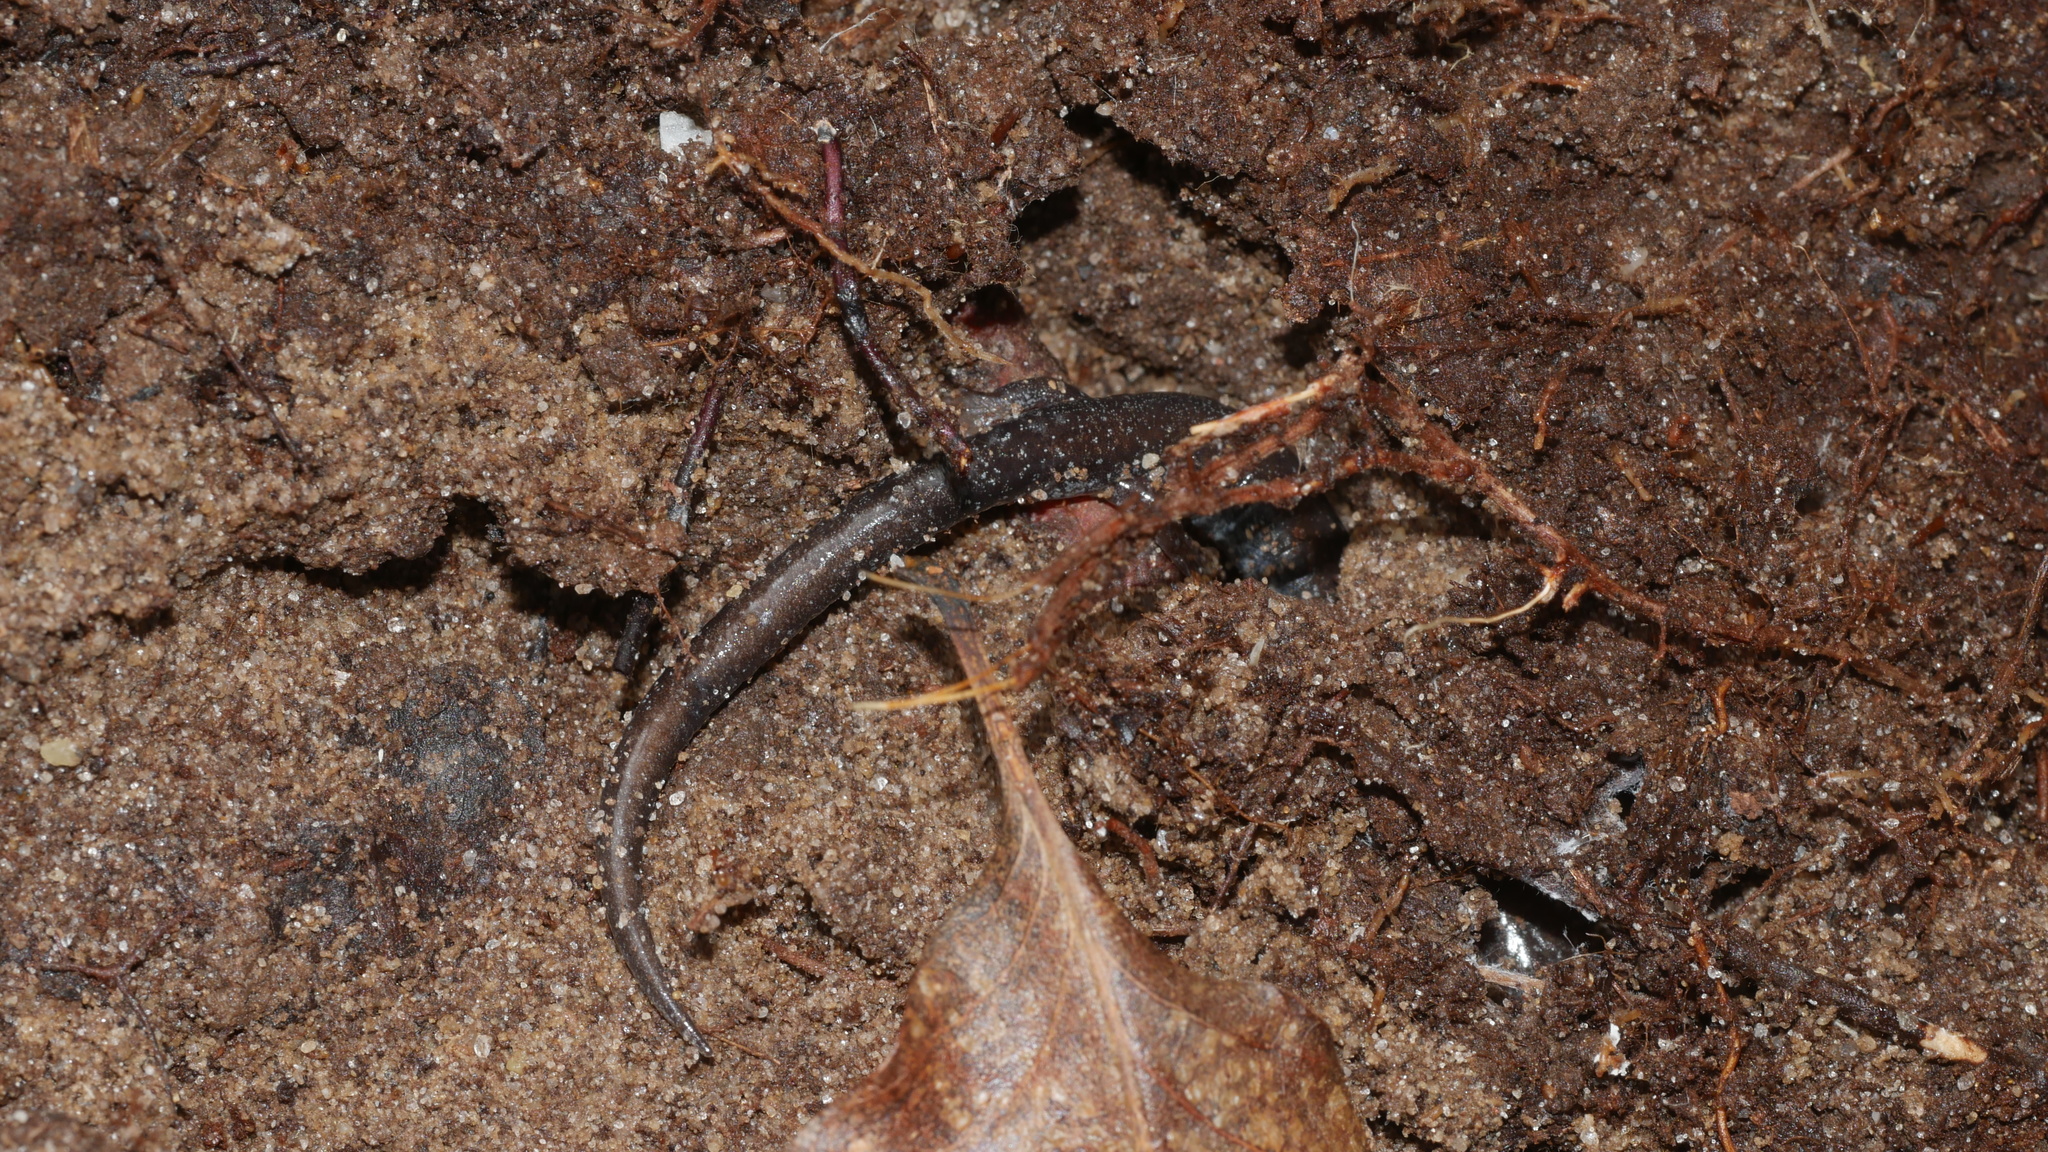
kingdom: Animalia
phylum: Chordata
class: Amphibia
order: Caudata
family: Plethodontidae
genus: Plethodon
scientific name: Plethodon cinereus
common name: Redback salamander
